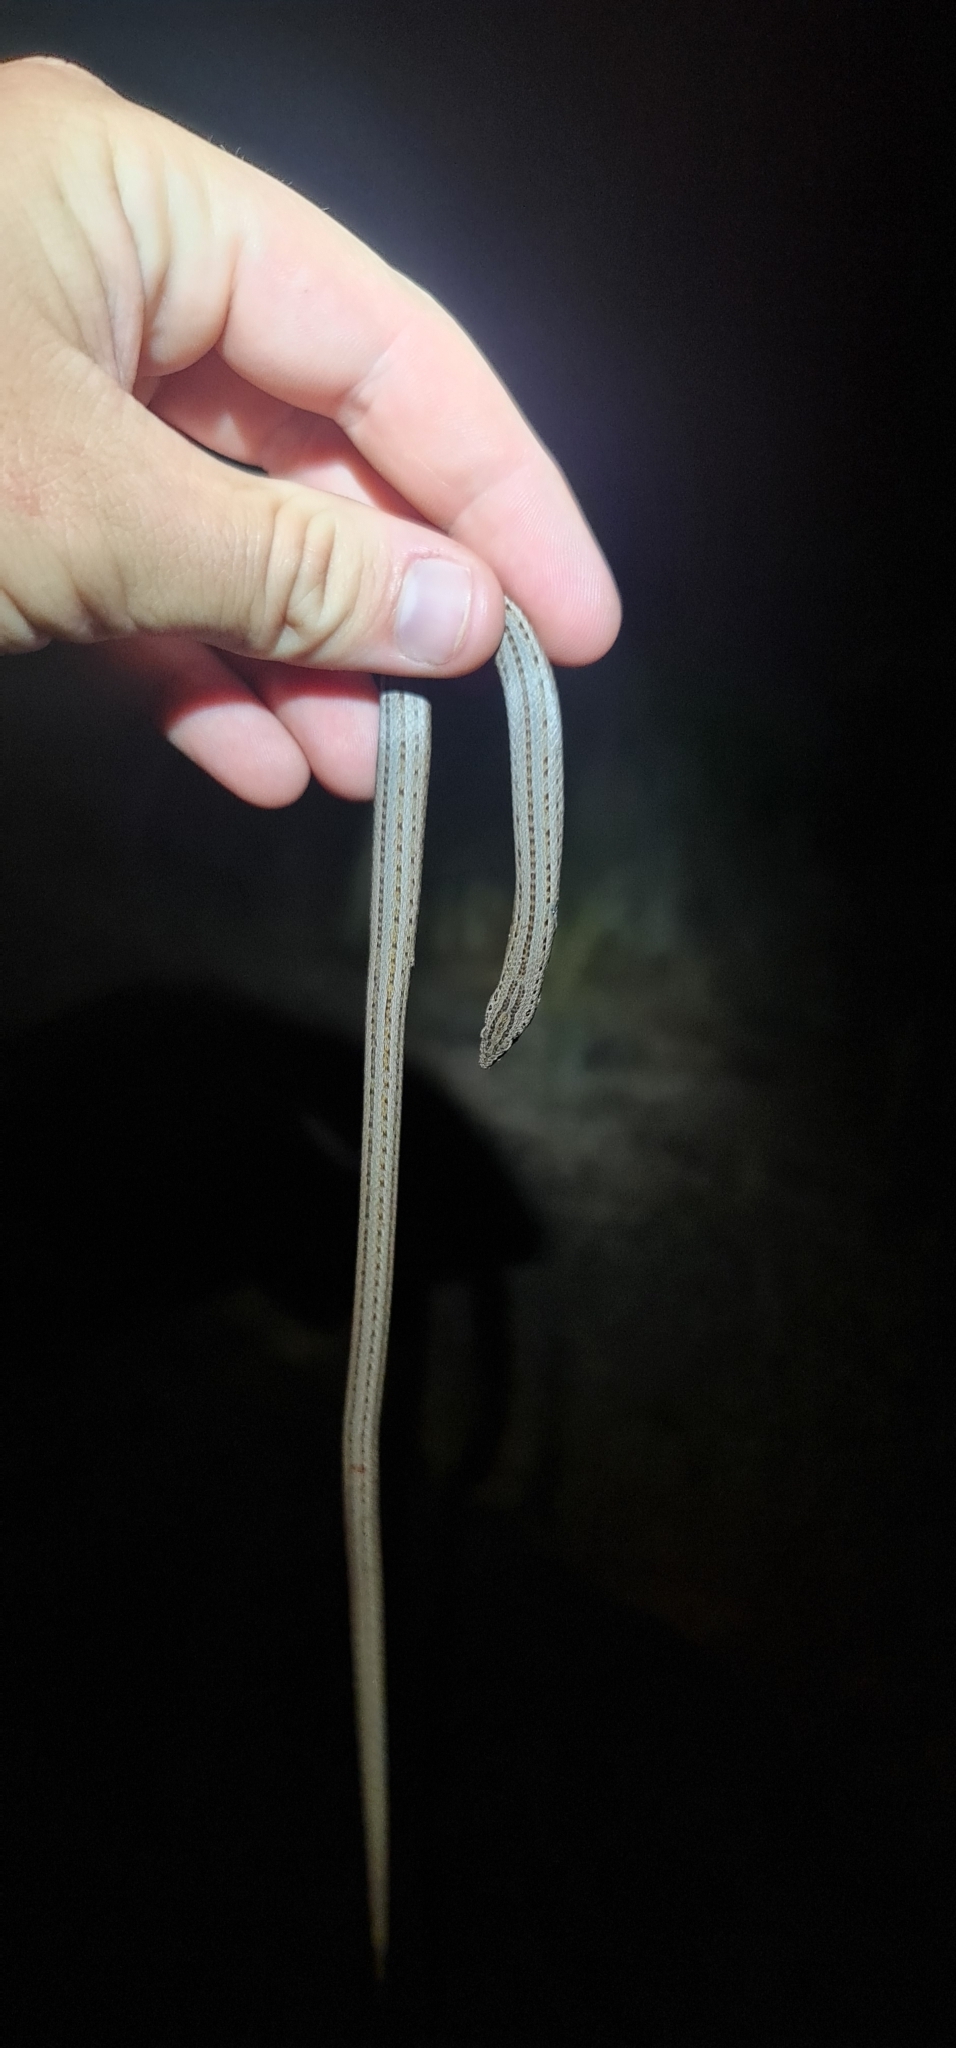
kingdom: Animalia
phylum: Chordata
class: Squamata
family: Pygopodidae
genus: Lialis
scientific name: Lialis burtonis
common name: Burton's legless lizard
